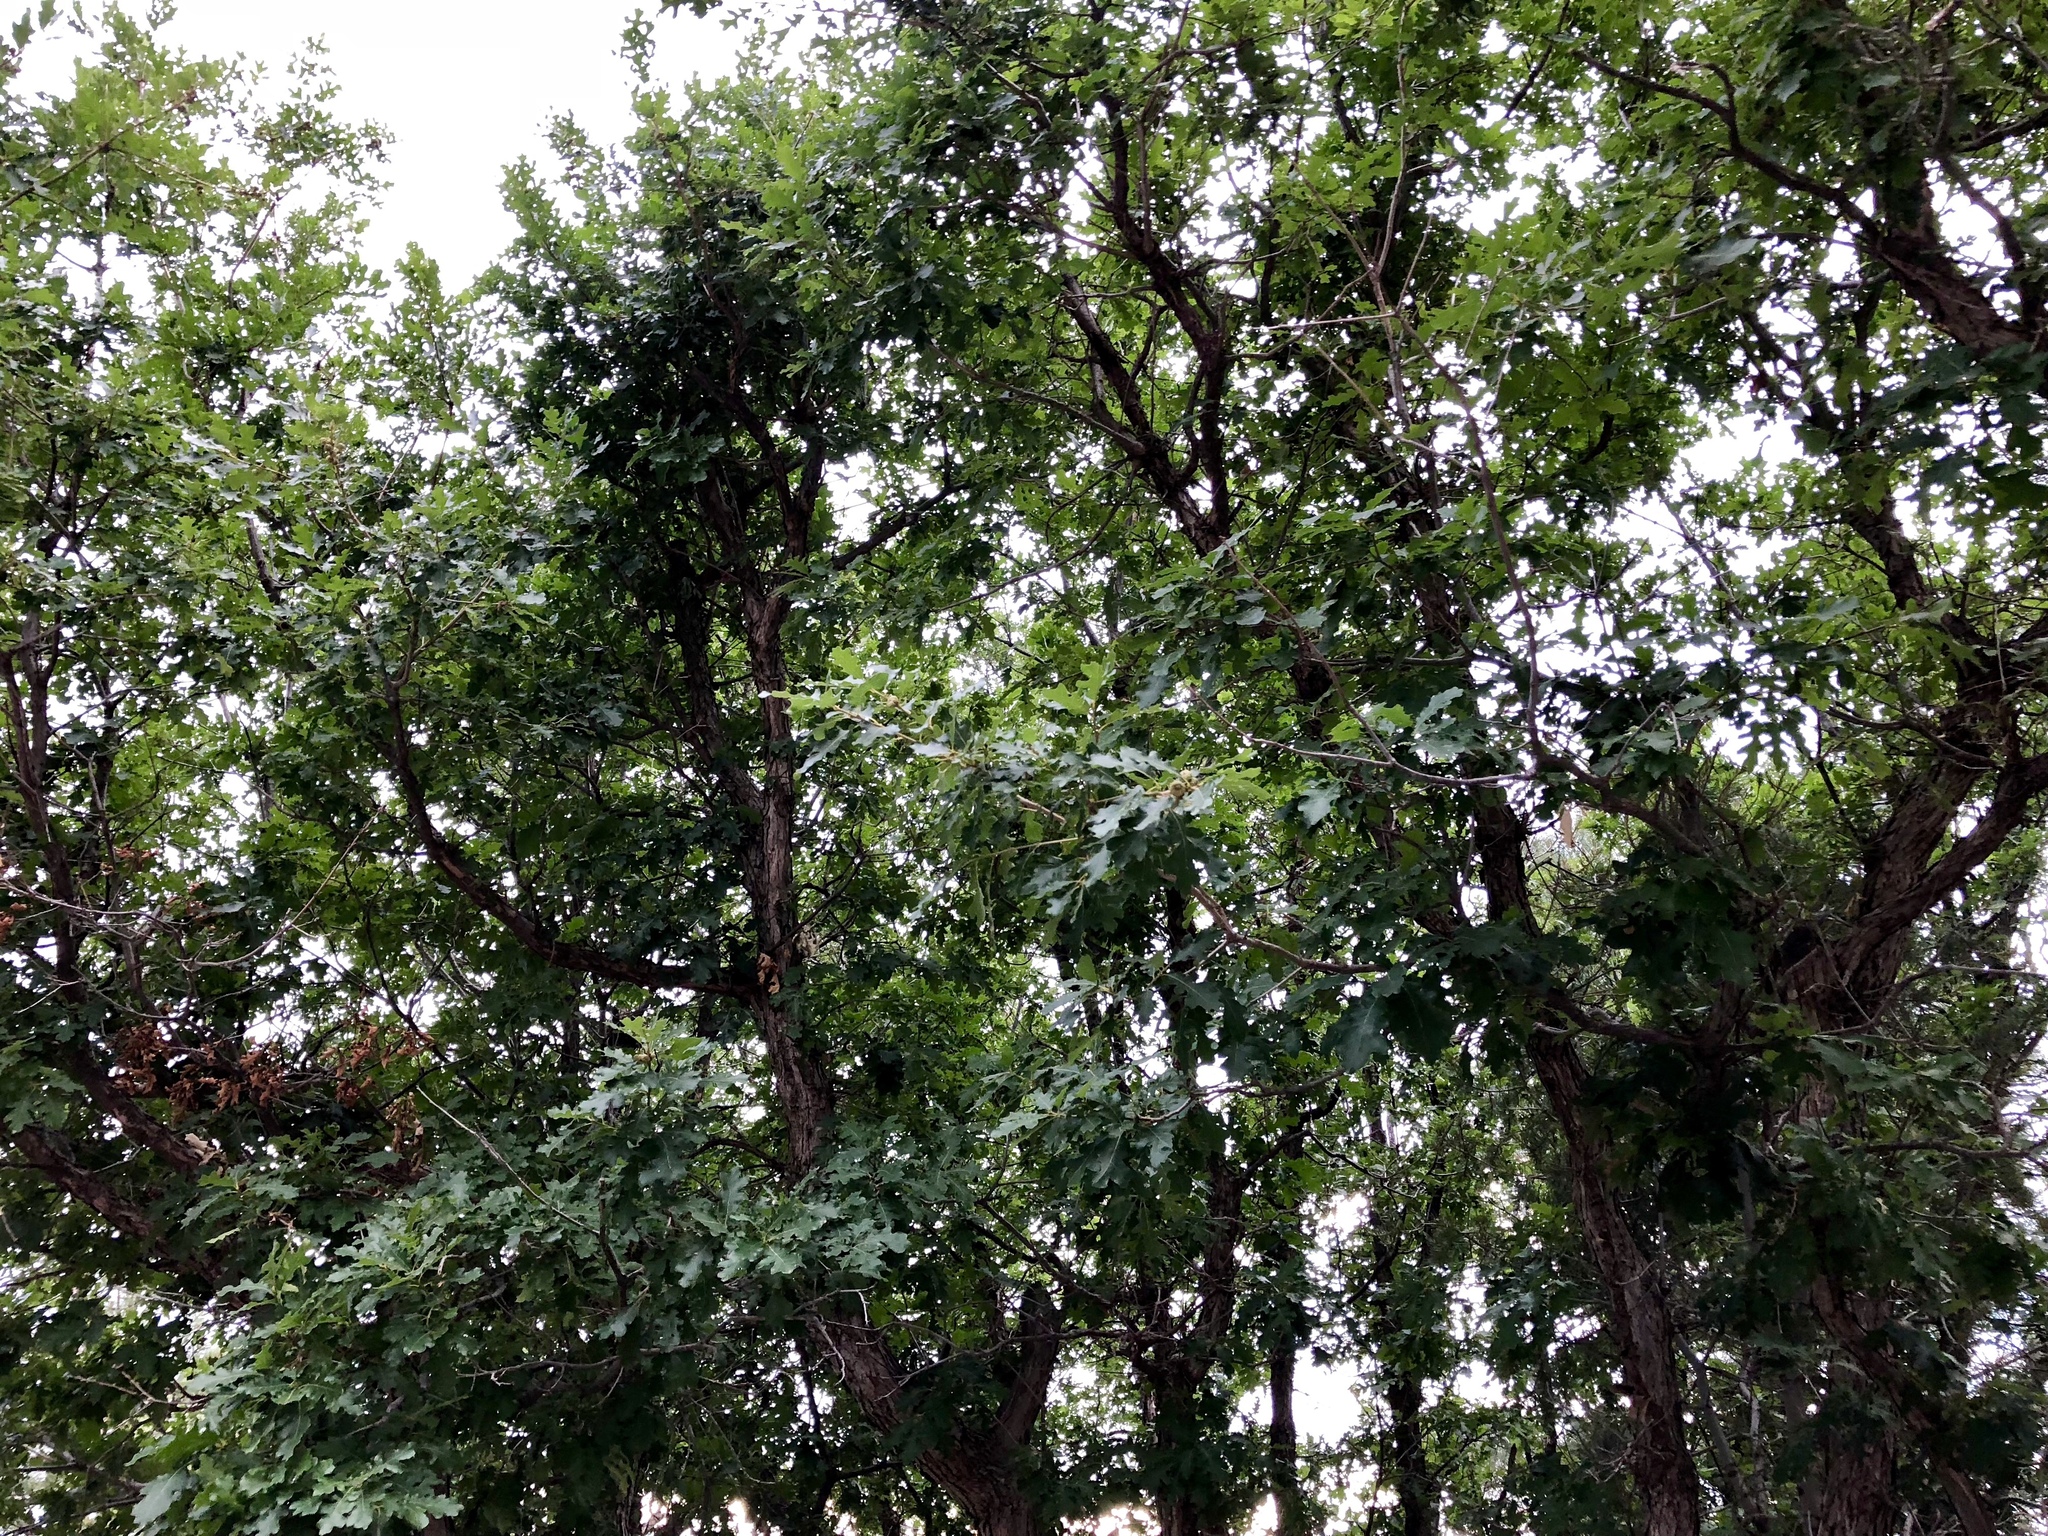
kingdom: Plantae
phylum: Tracheophyta
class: Magnoliopsida
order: Fagales
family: Fagaceae
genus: Quercus
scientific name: Quercus gambelii
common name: Gambel oak
